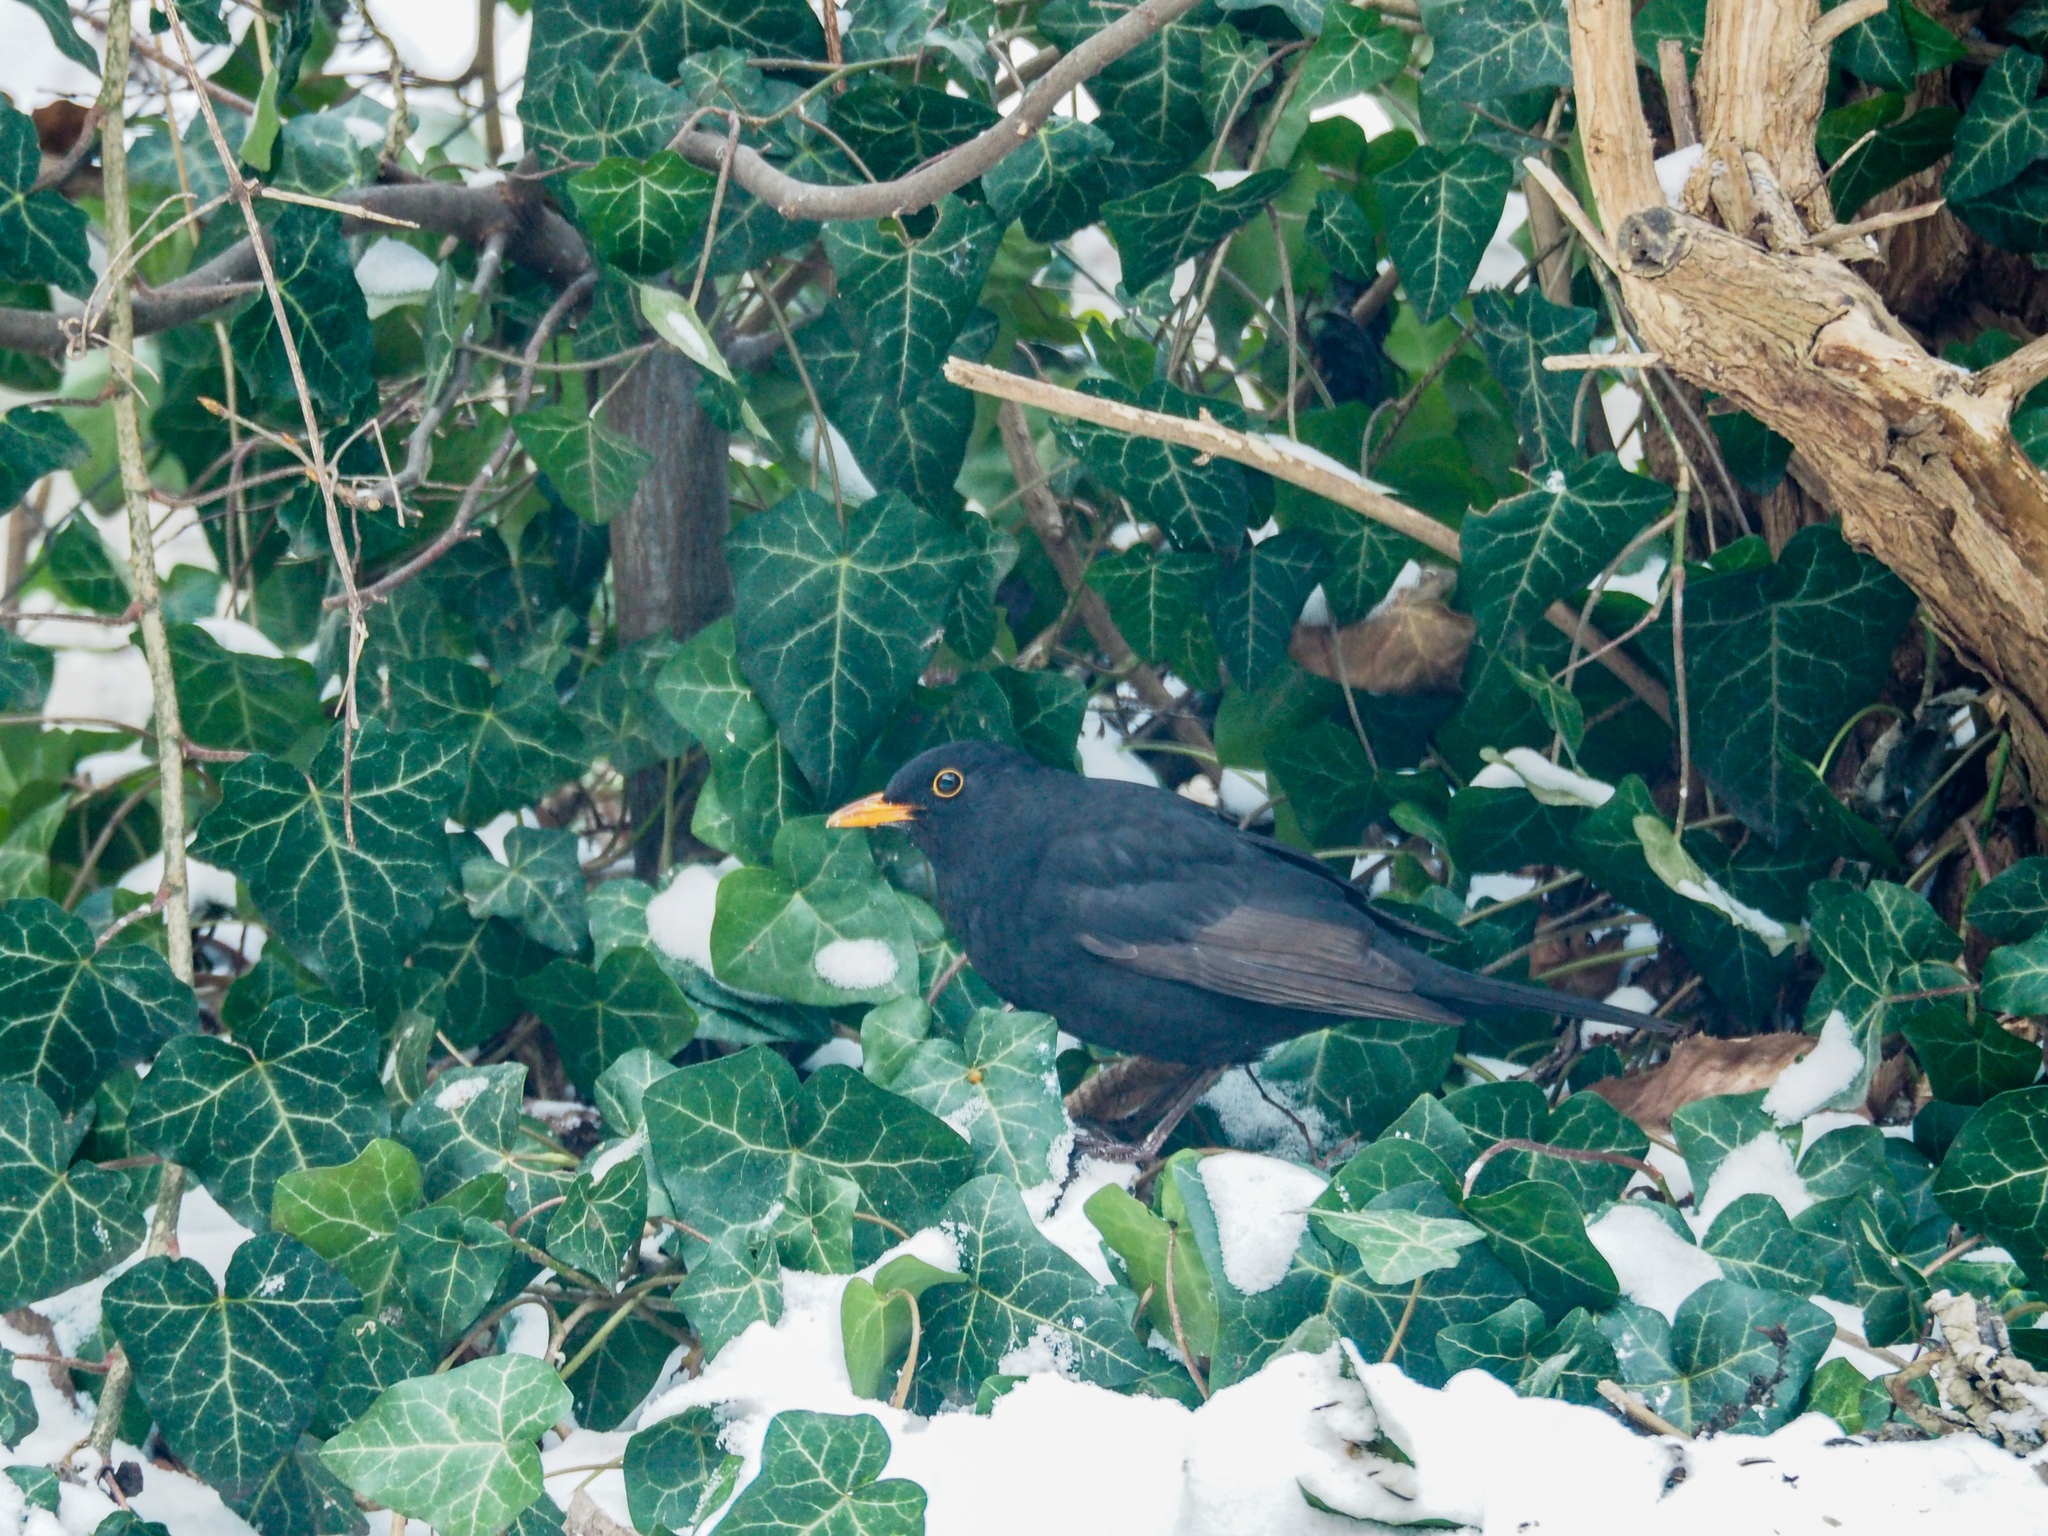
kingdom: Animalia
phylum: Chordata
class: Aves
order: Passeriformes
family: Turdidae
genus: Turdus
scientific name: Turdus merula
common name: Common blackbird
